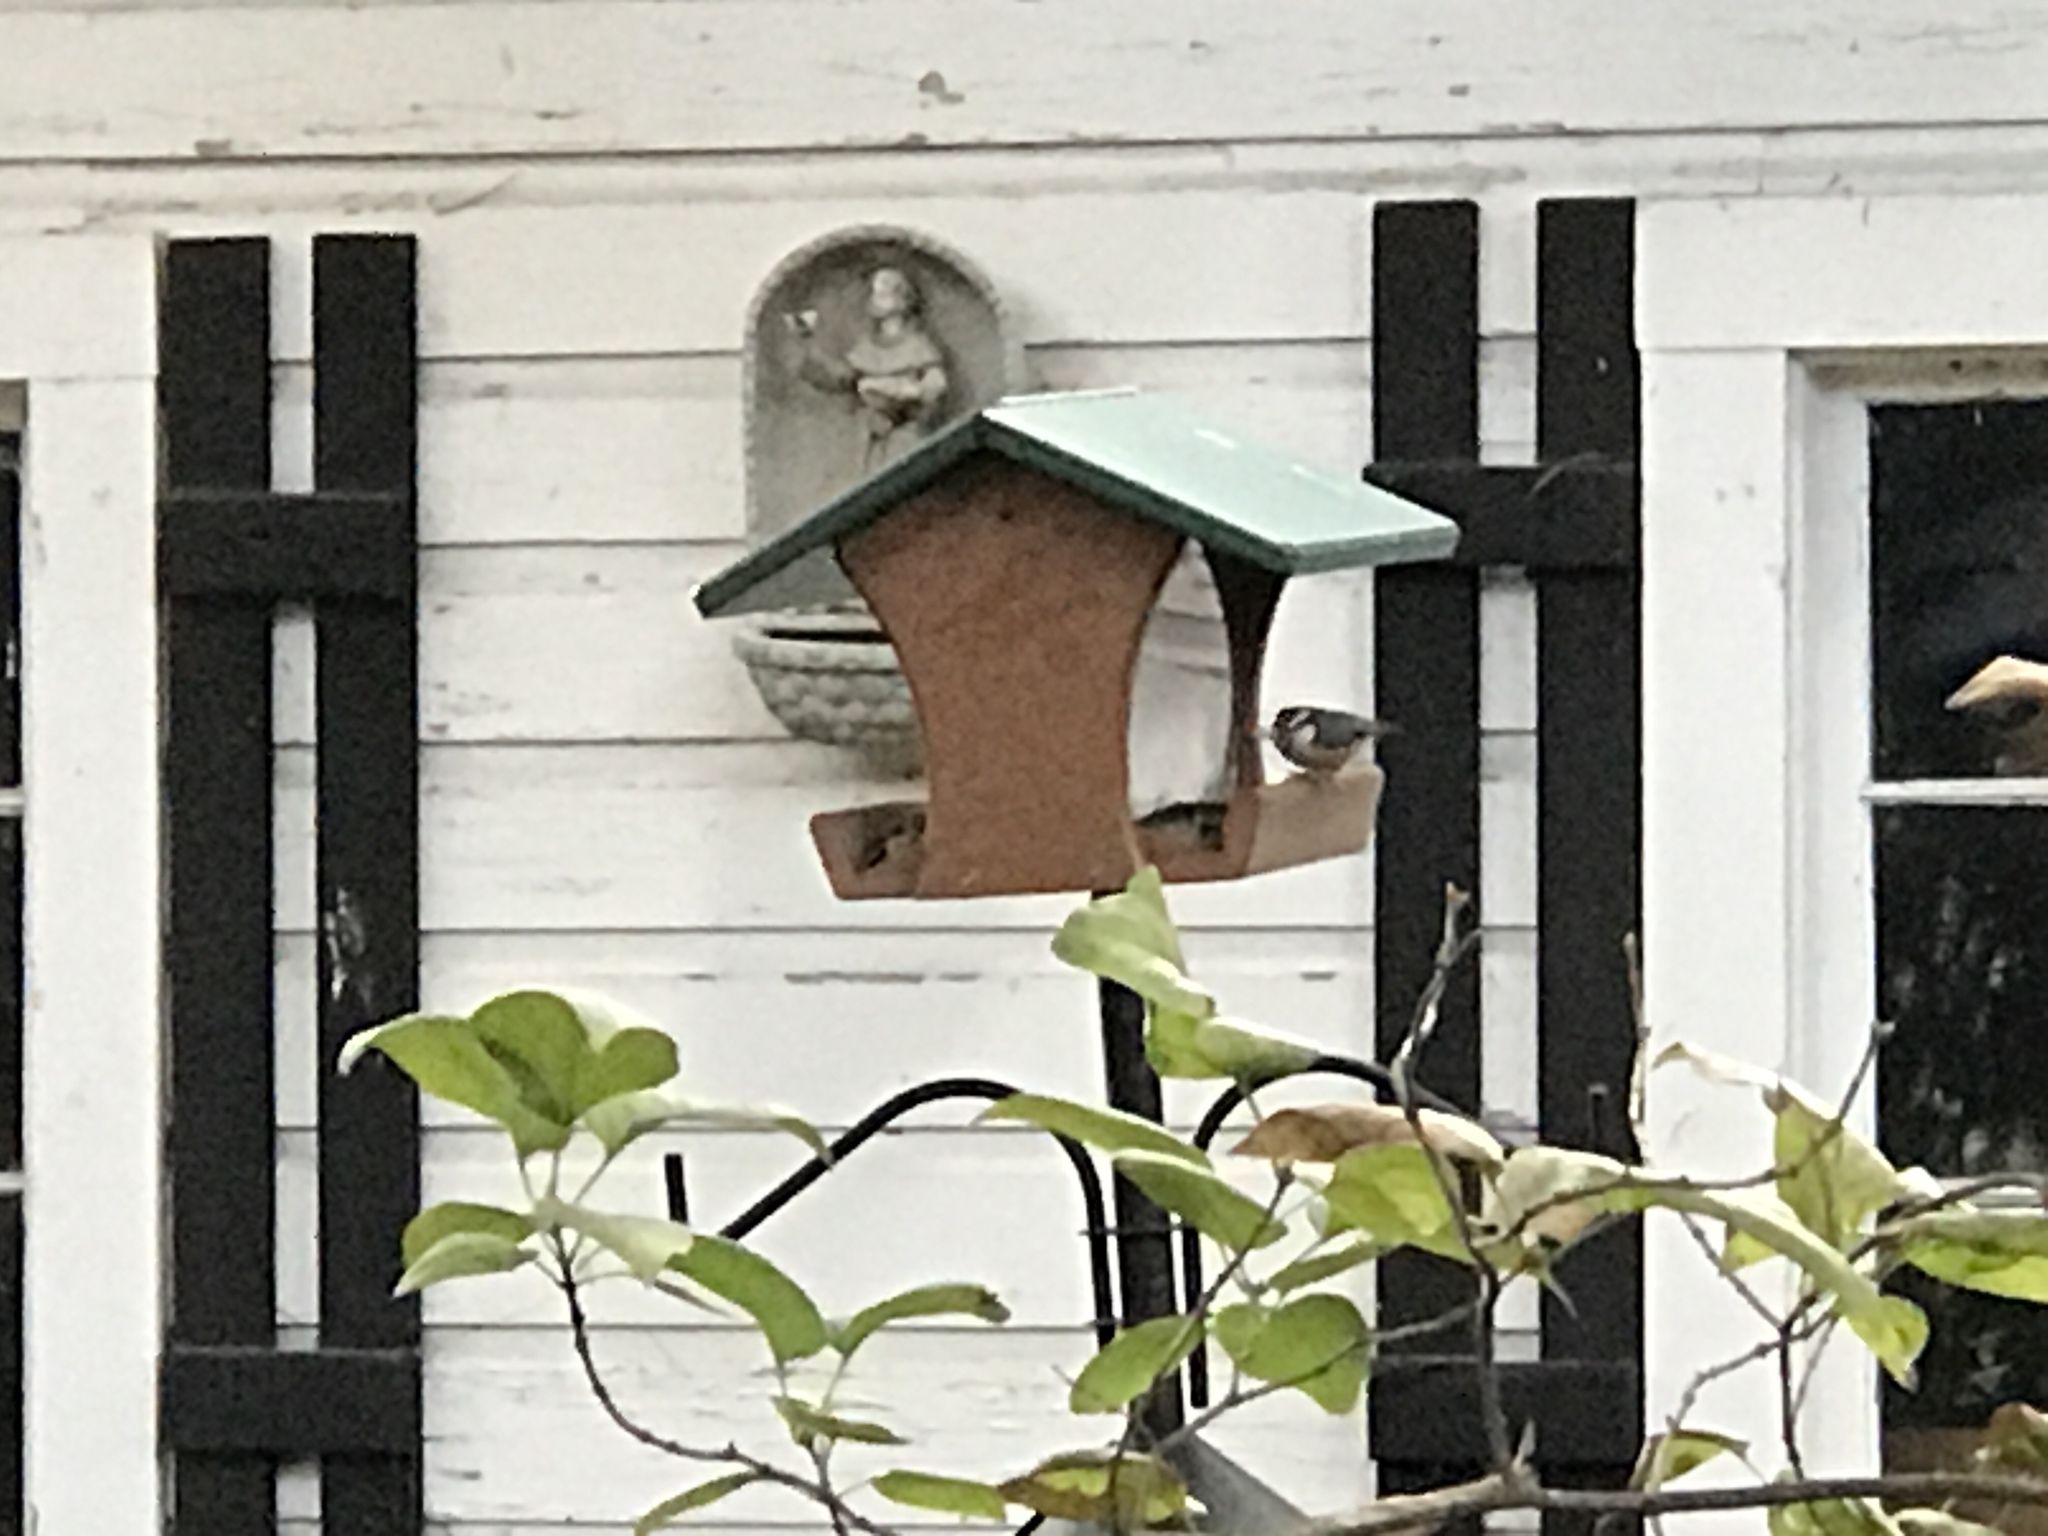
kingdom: Animalia
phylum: Chordata
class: Aves
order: Passeriformes
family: Sittidae
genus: Sitta
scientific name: Sitta canadensis
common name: Red-breasted nuthatch
